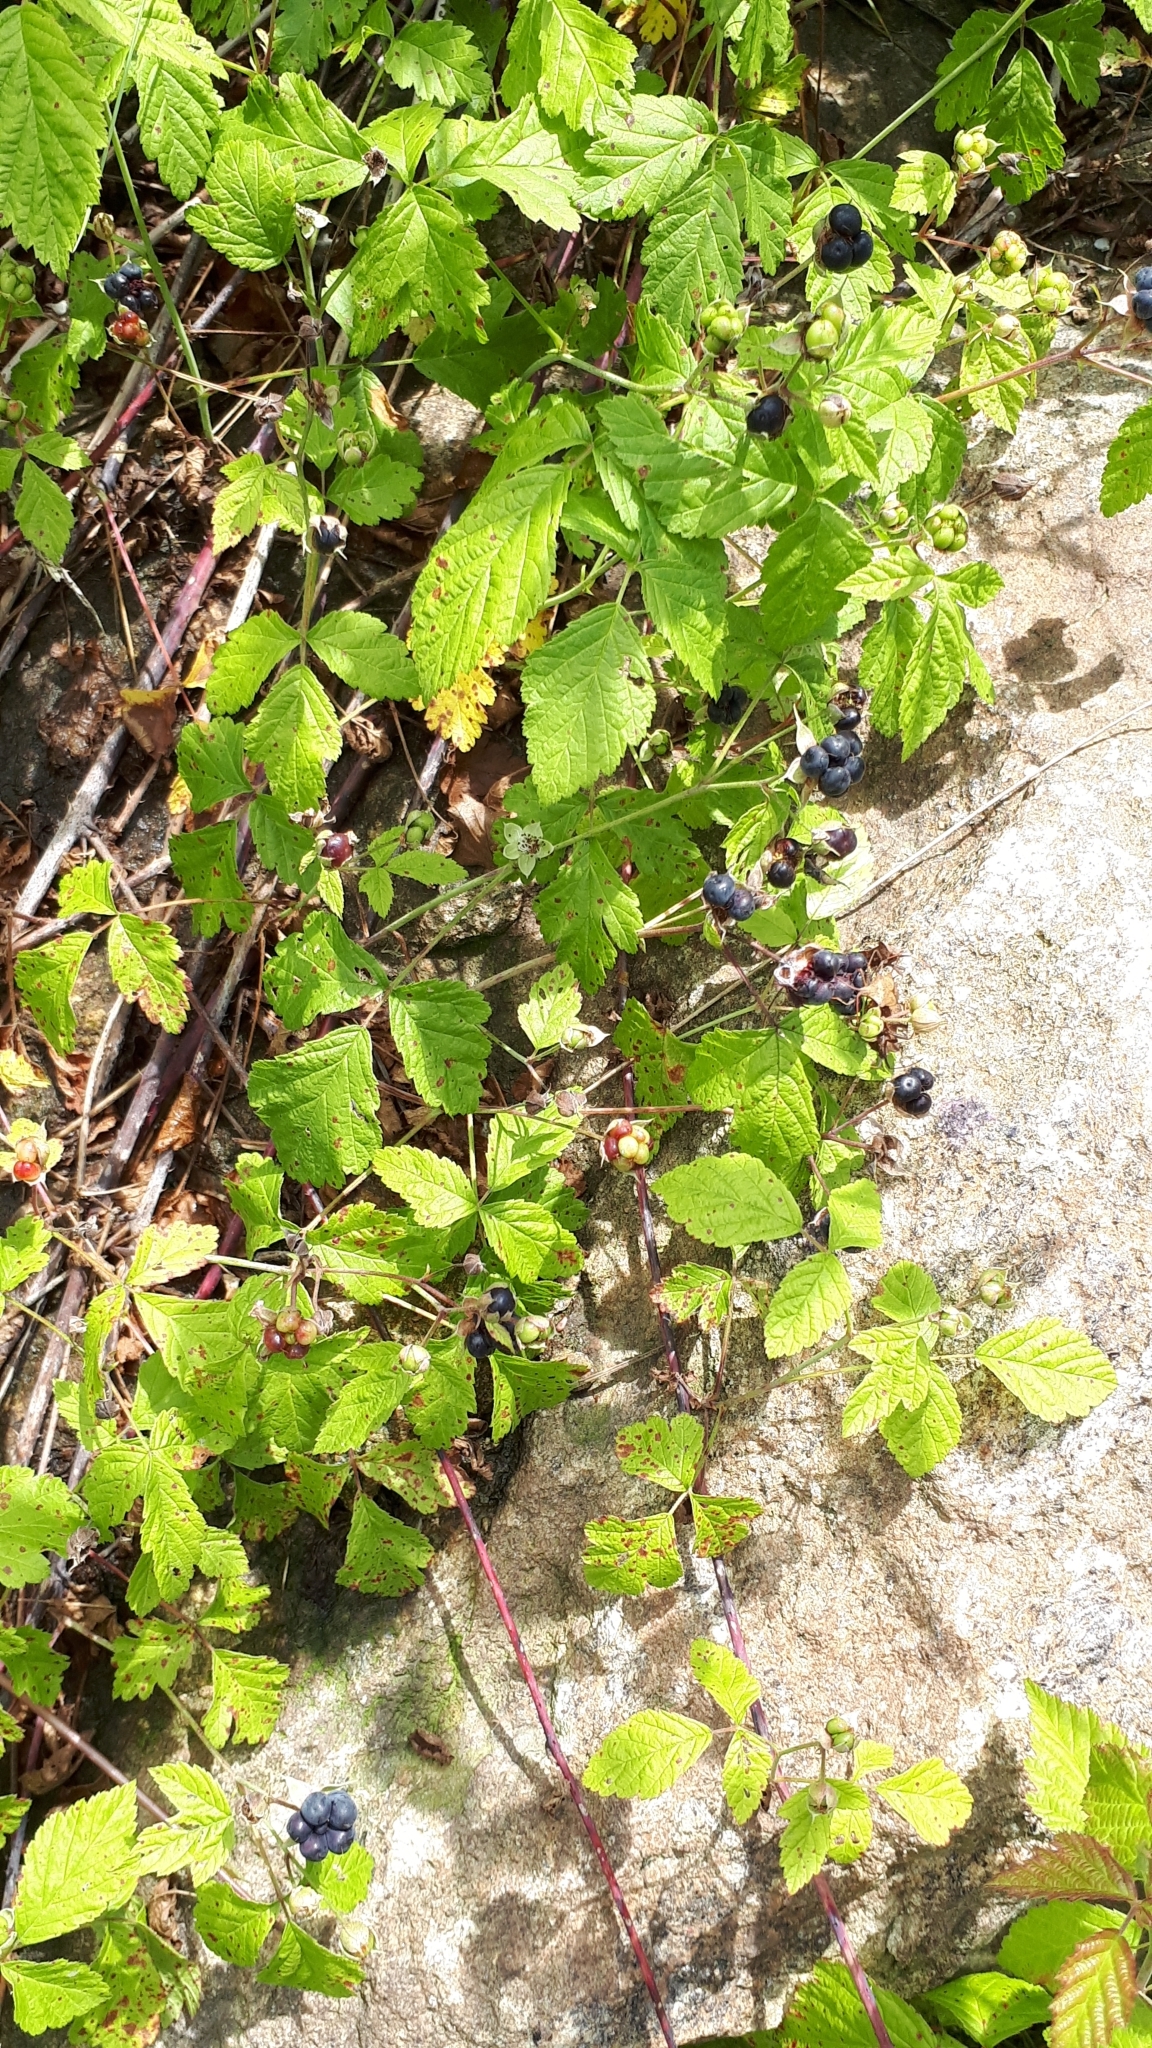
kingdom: Plantae
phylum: Tracheophyta
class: Magnoliopsida
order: Rosales
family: Rosaceae
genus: Rubus
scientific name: Rubus caesius
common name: Dewberry
